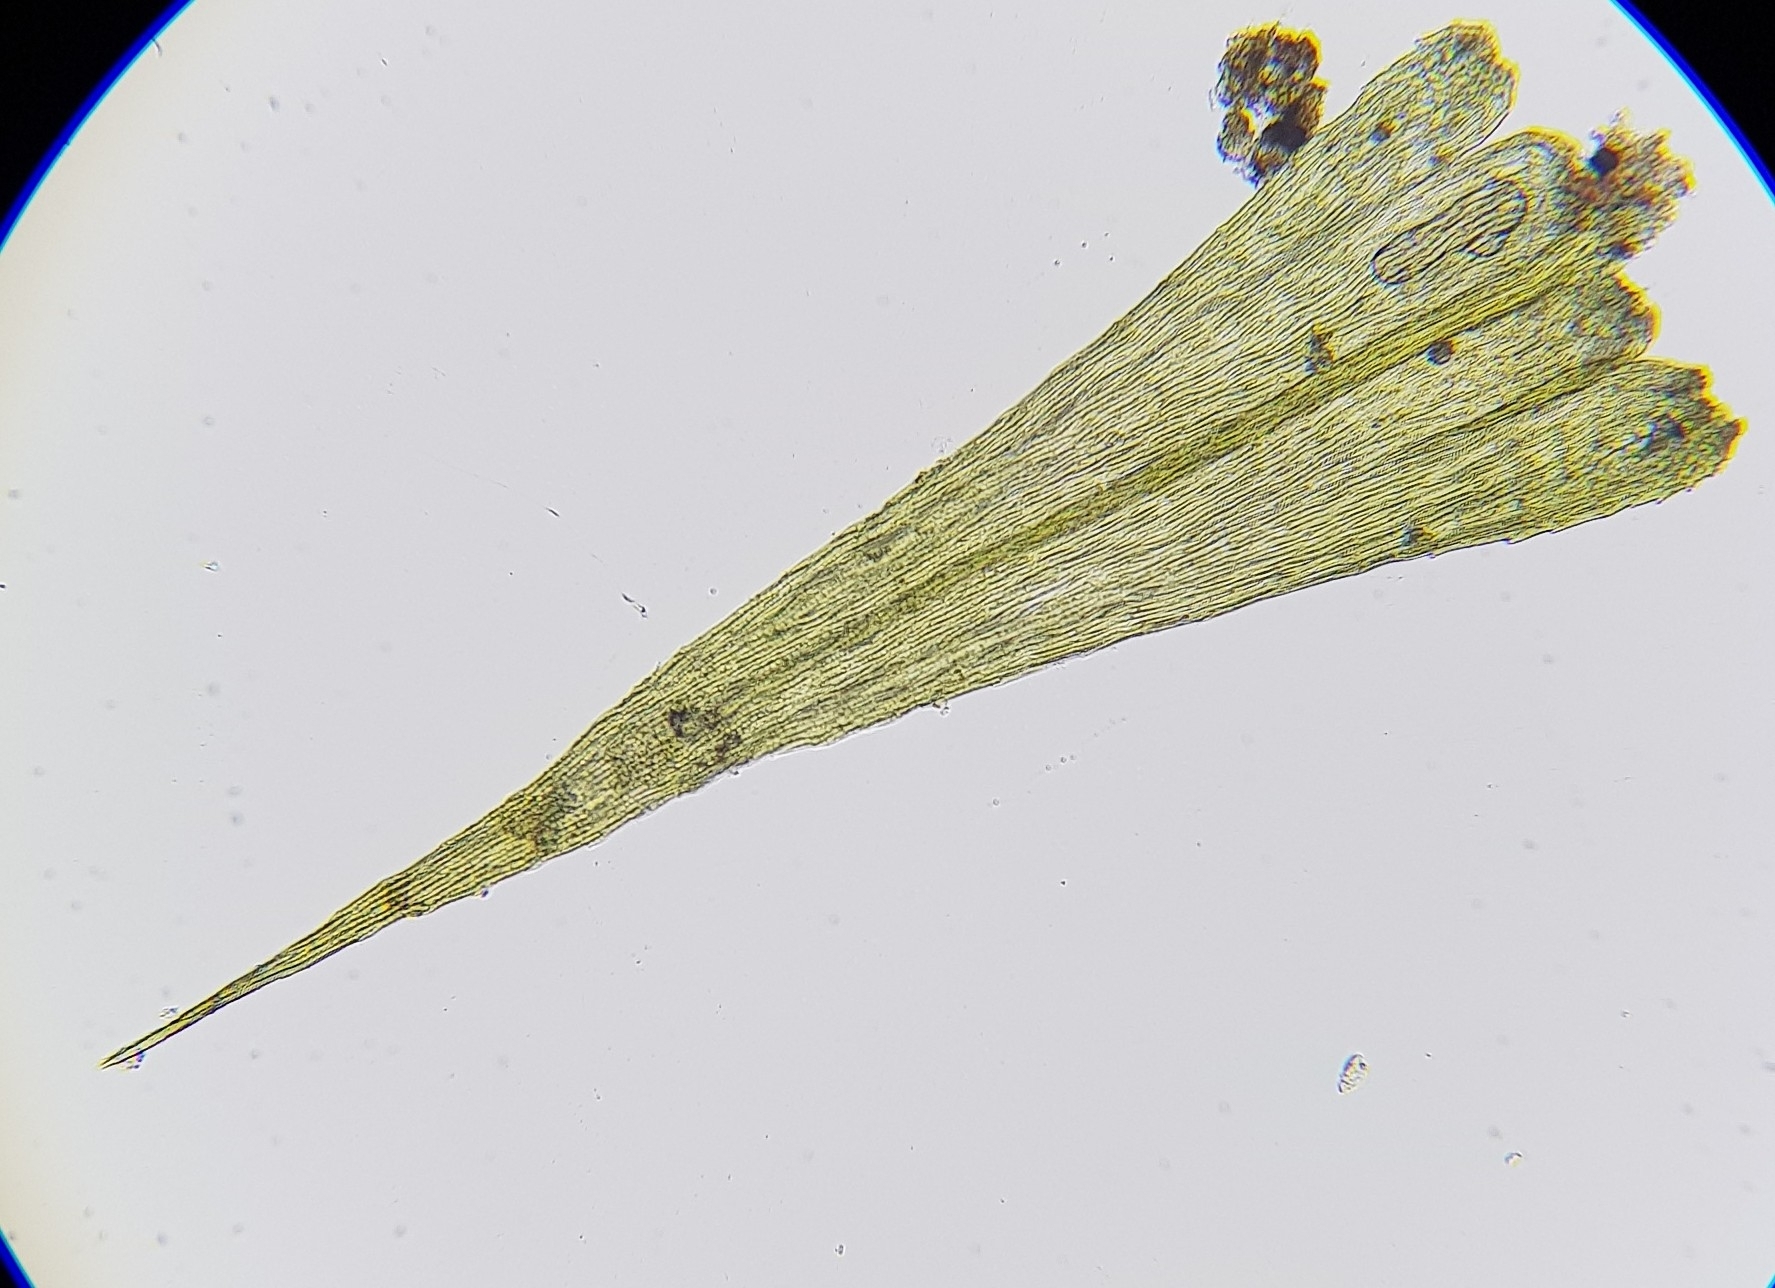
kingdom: Plantae
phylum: Bryophyta
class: Bryopsida
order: Hypnales
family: Brachytheciaceae
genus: Homalothecium
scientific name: Homalothecium sericeum
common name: Silky wall feather-moss
